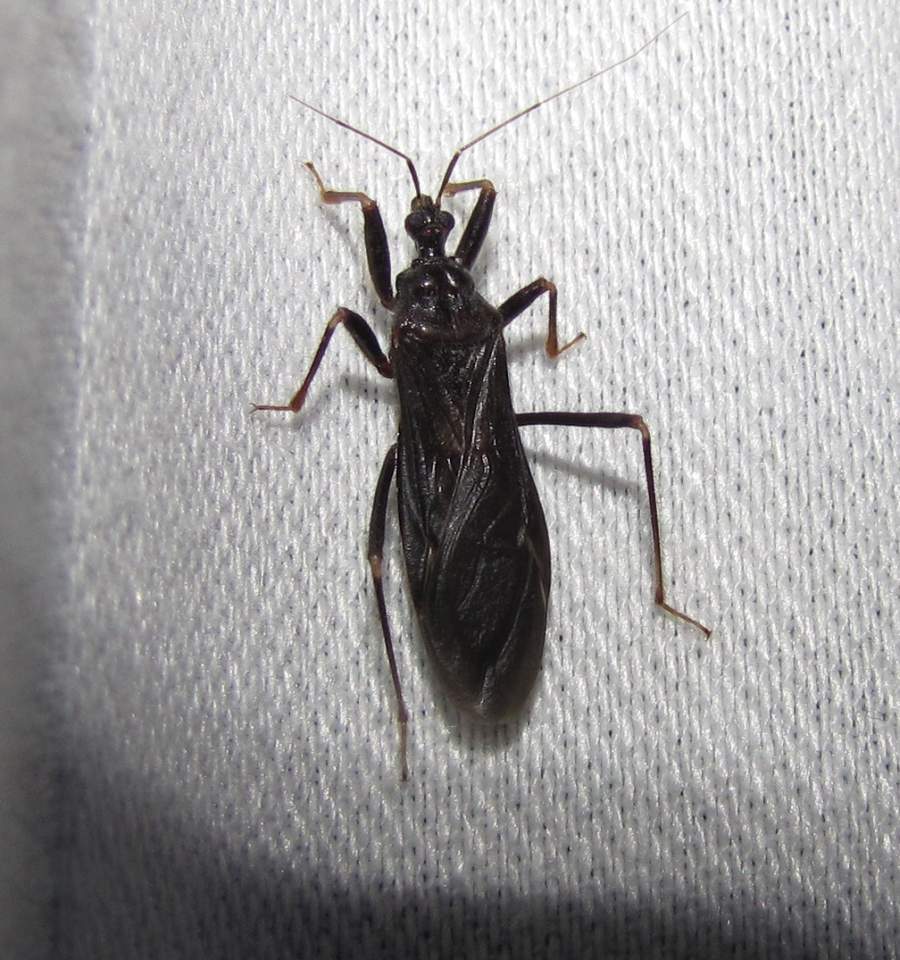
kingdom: Animalia
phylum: Arthropoda
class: Insecta
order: Hemiptera
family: Reduviidae
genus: Reduvius
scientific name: Reduvius personatus
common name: Masked hunter
